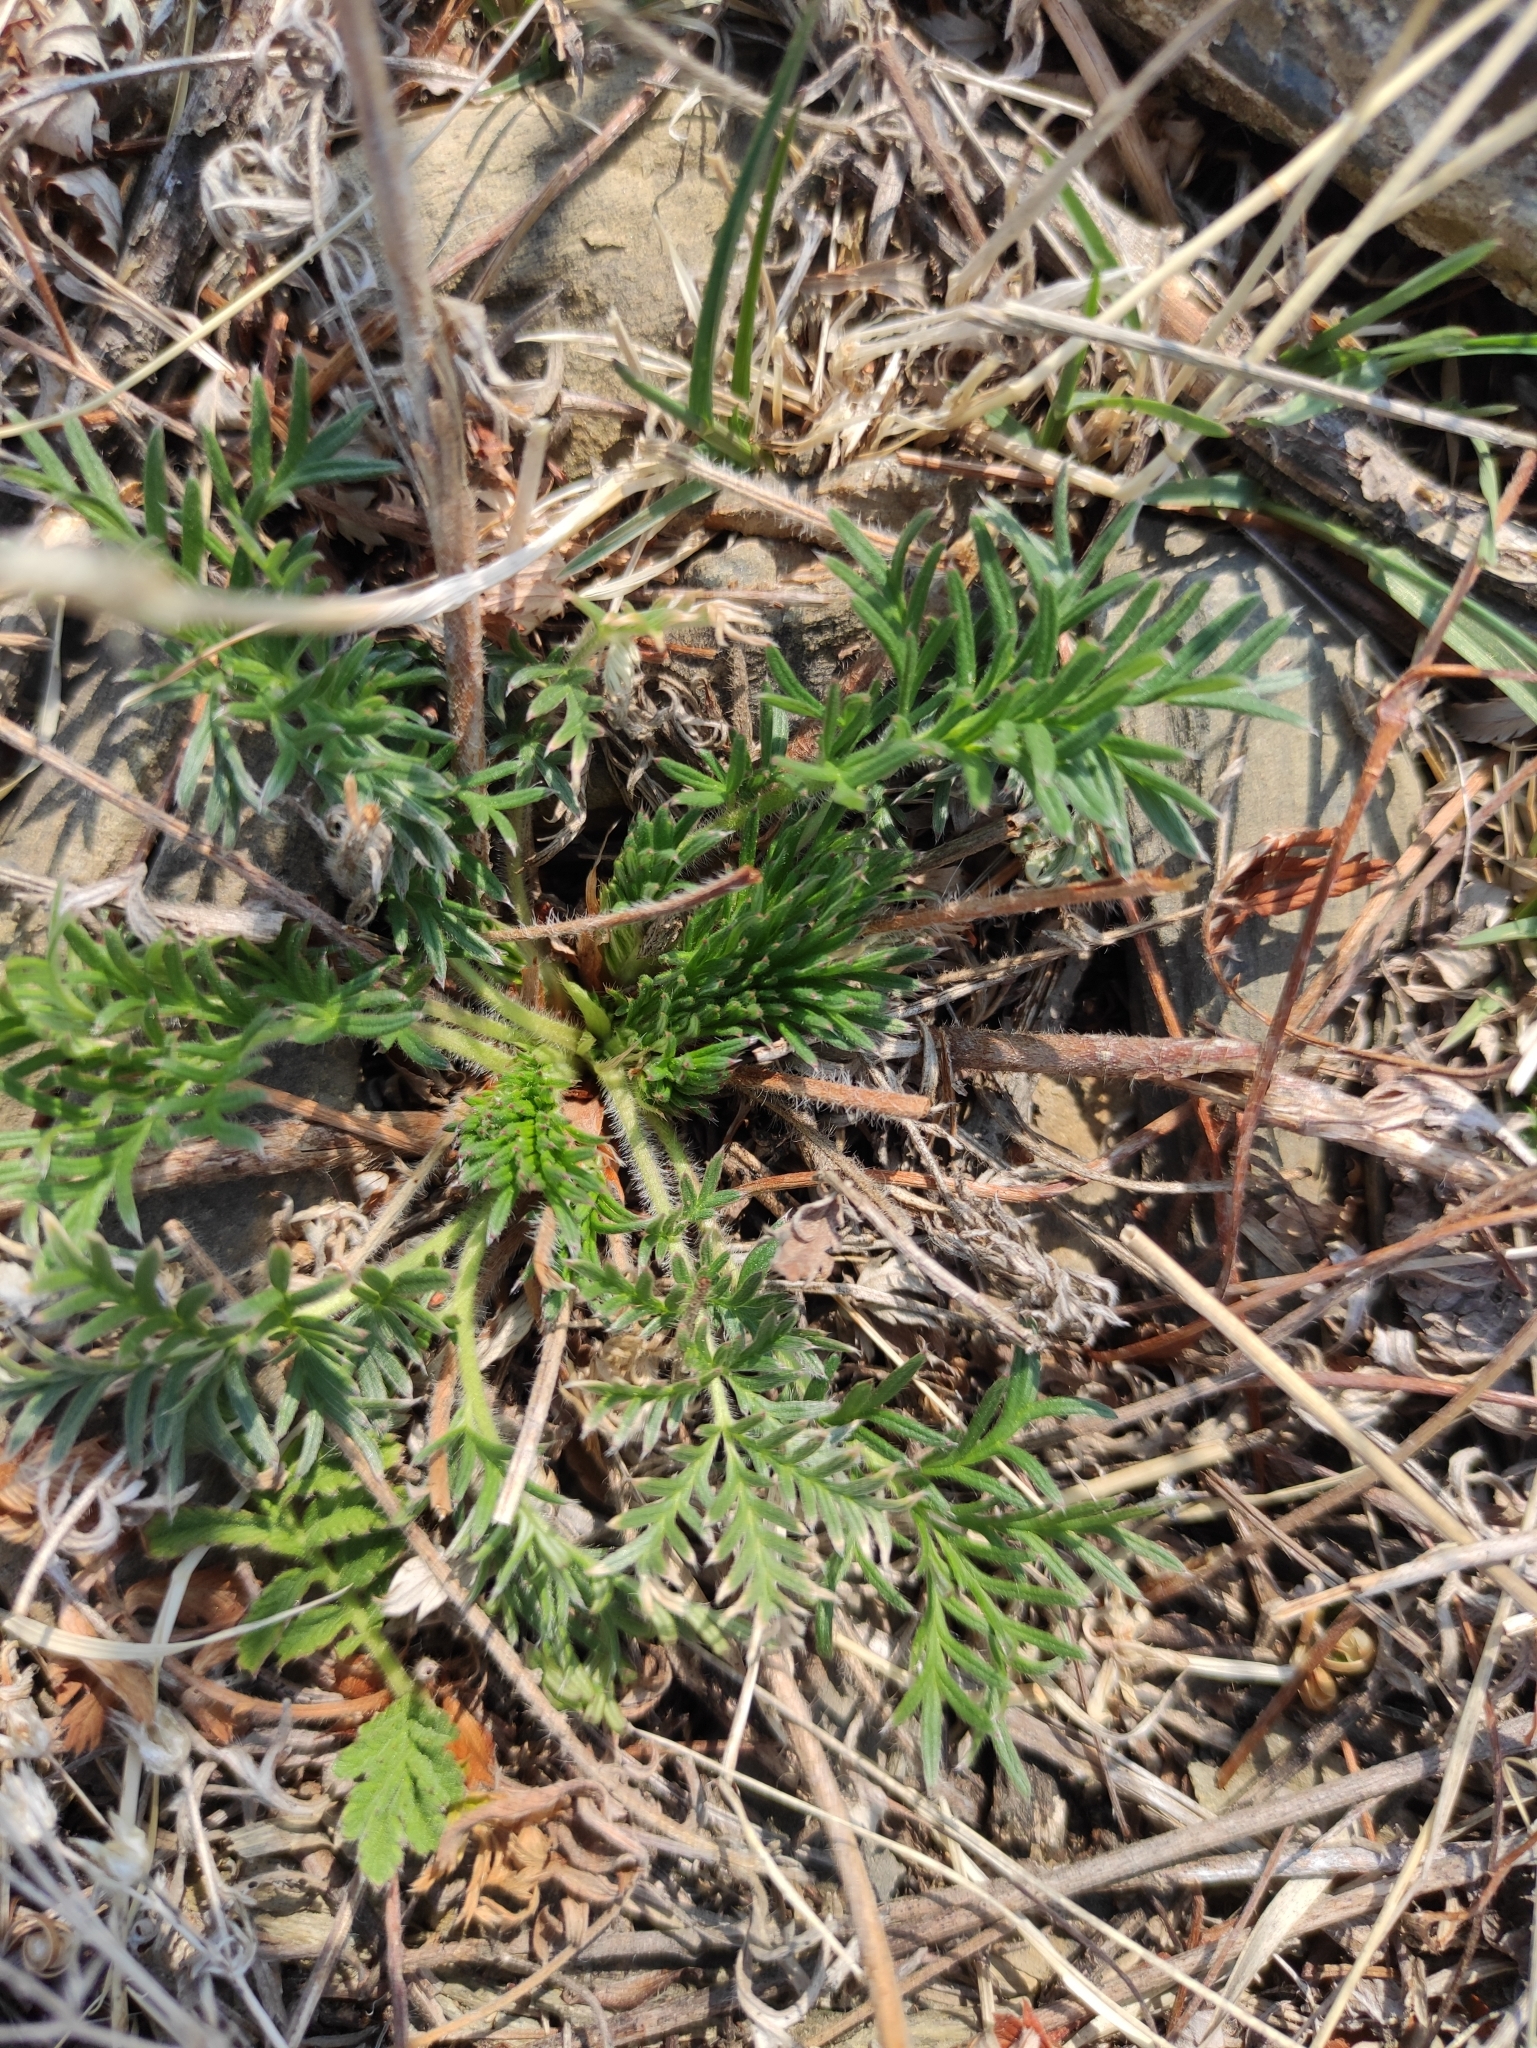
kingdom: Plantae
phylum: Tracheophyta
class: Magnoliopsida
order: Rosales
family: Rosaceae
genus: Potentilla
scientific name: Potentilla tergemina
